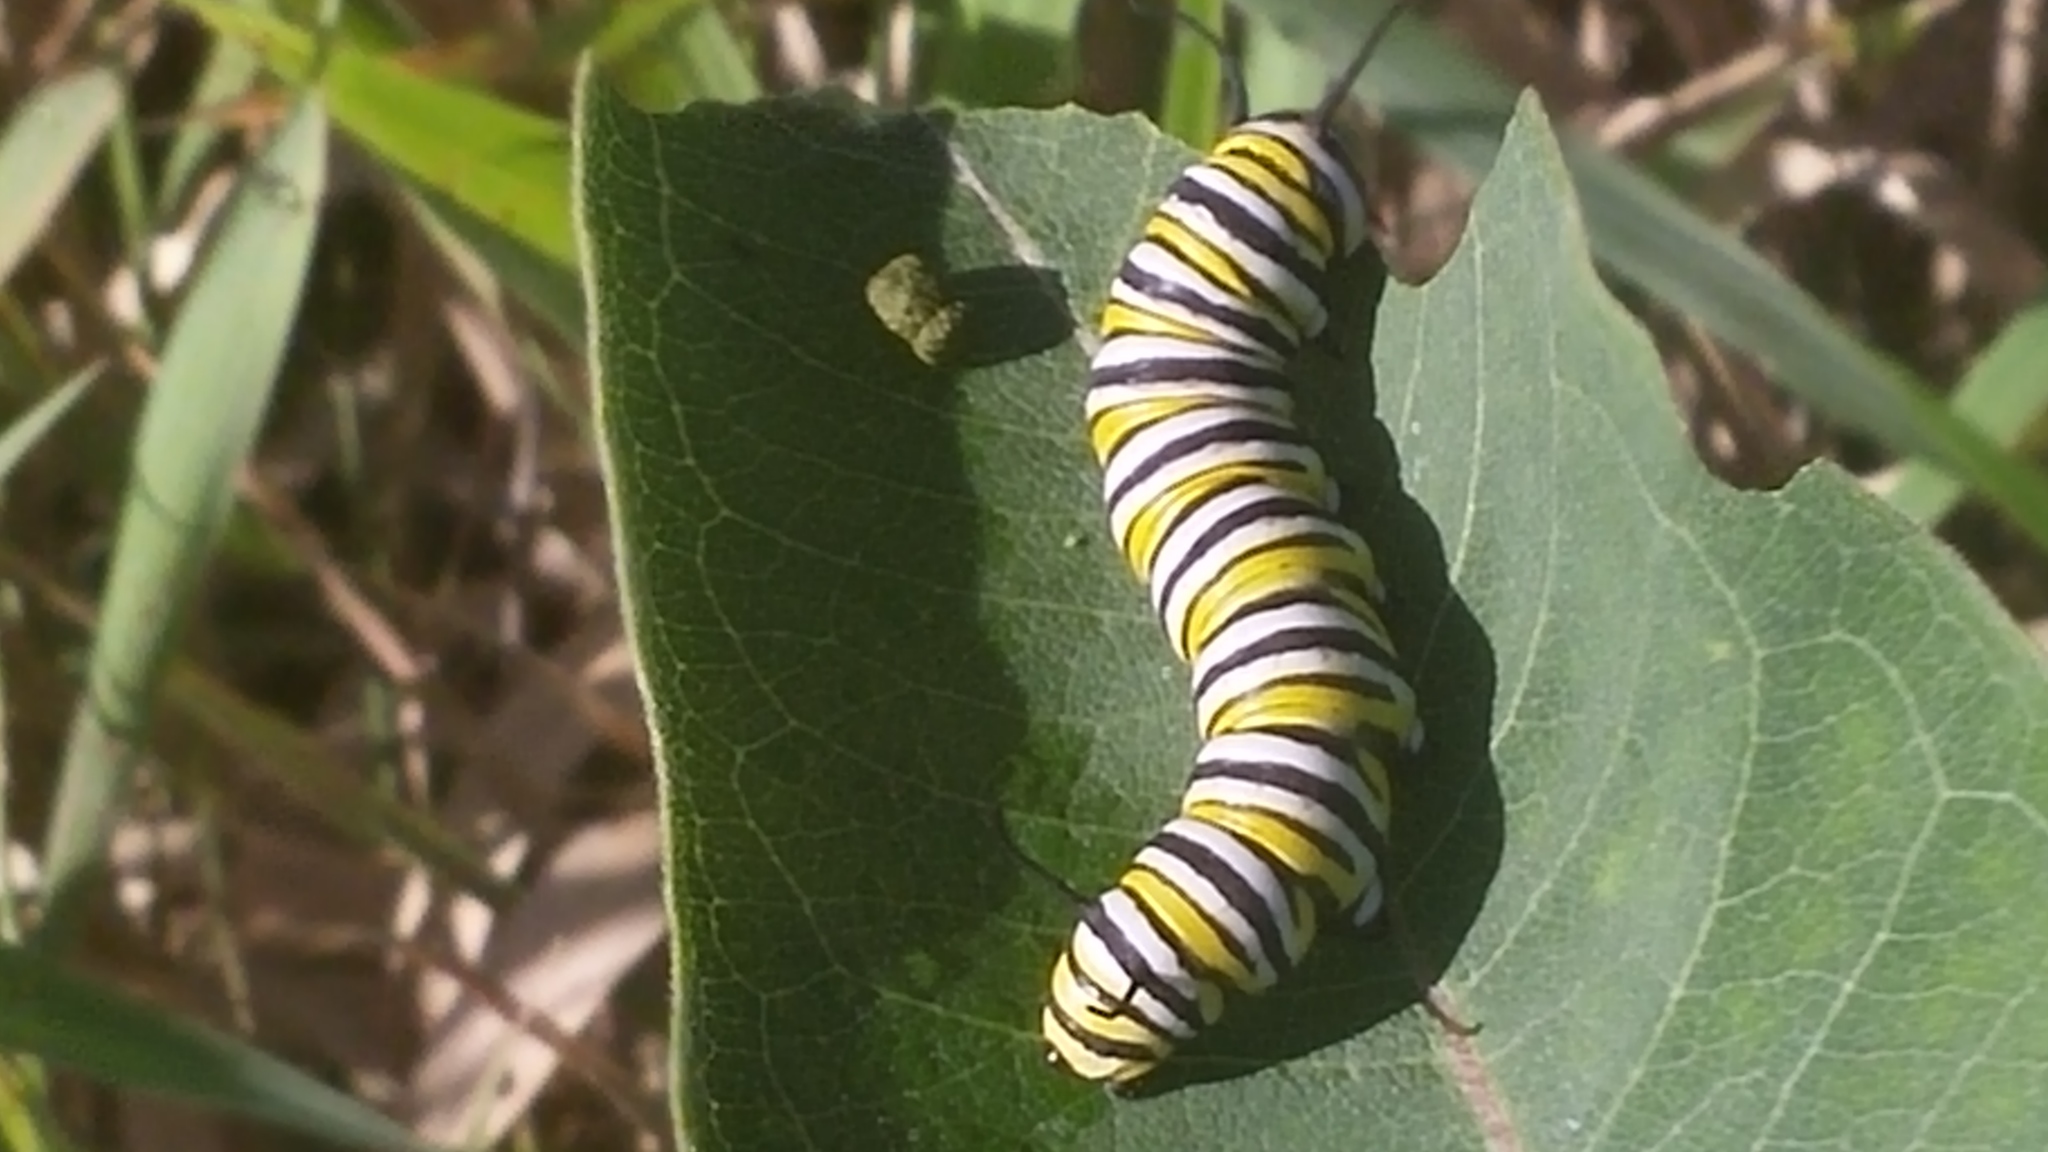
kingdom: Animalia
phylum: Arthropoda
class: Insecta
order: Lepidoptera
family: Nymphalidae
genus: Danaus
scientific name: Danaus plexippus
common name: Monarch
